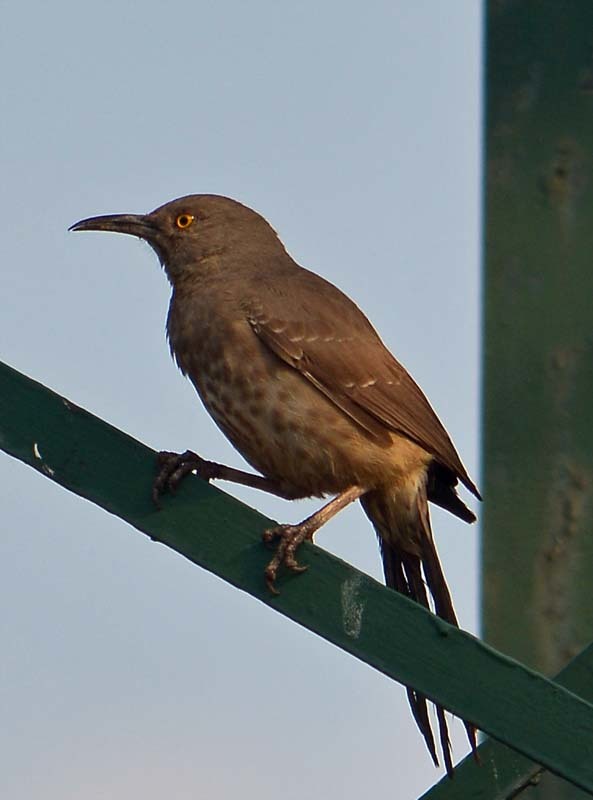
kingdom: Animalia
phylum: Chordata
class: Aves
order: Passeriformes
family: Mimidae
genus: Toxostoma
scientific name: Toxostoma curvirostre
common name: Curve-billed thrasher
